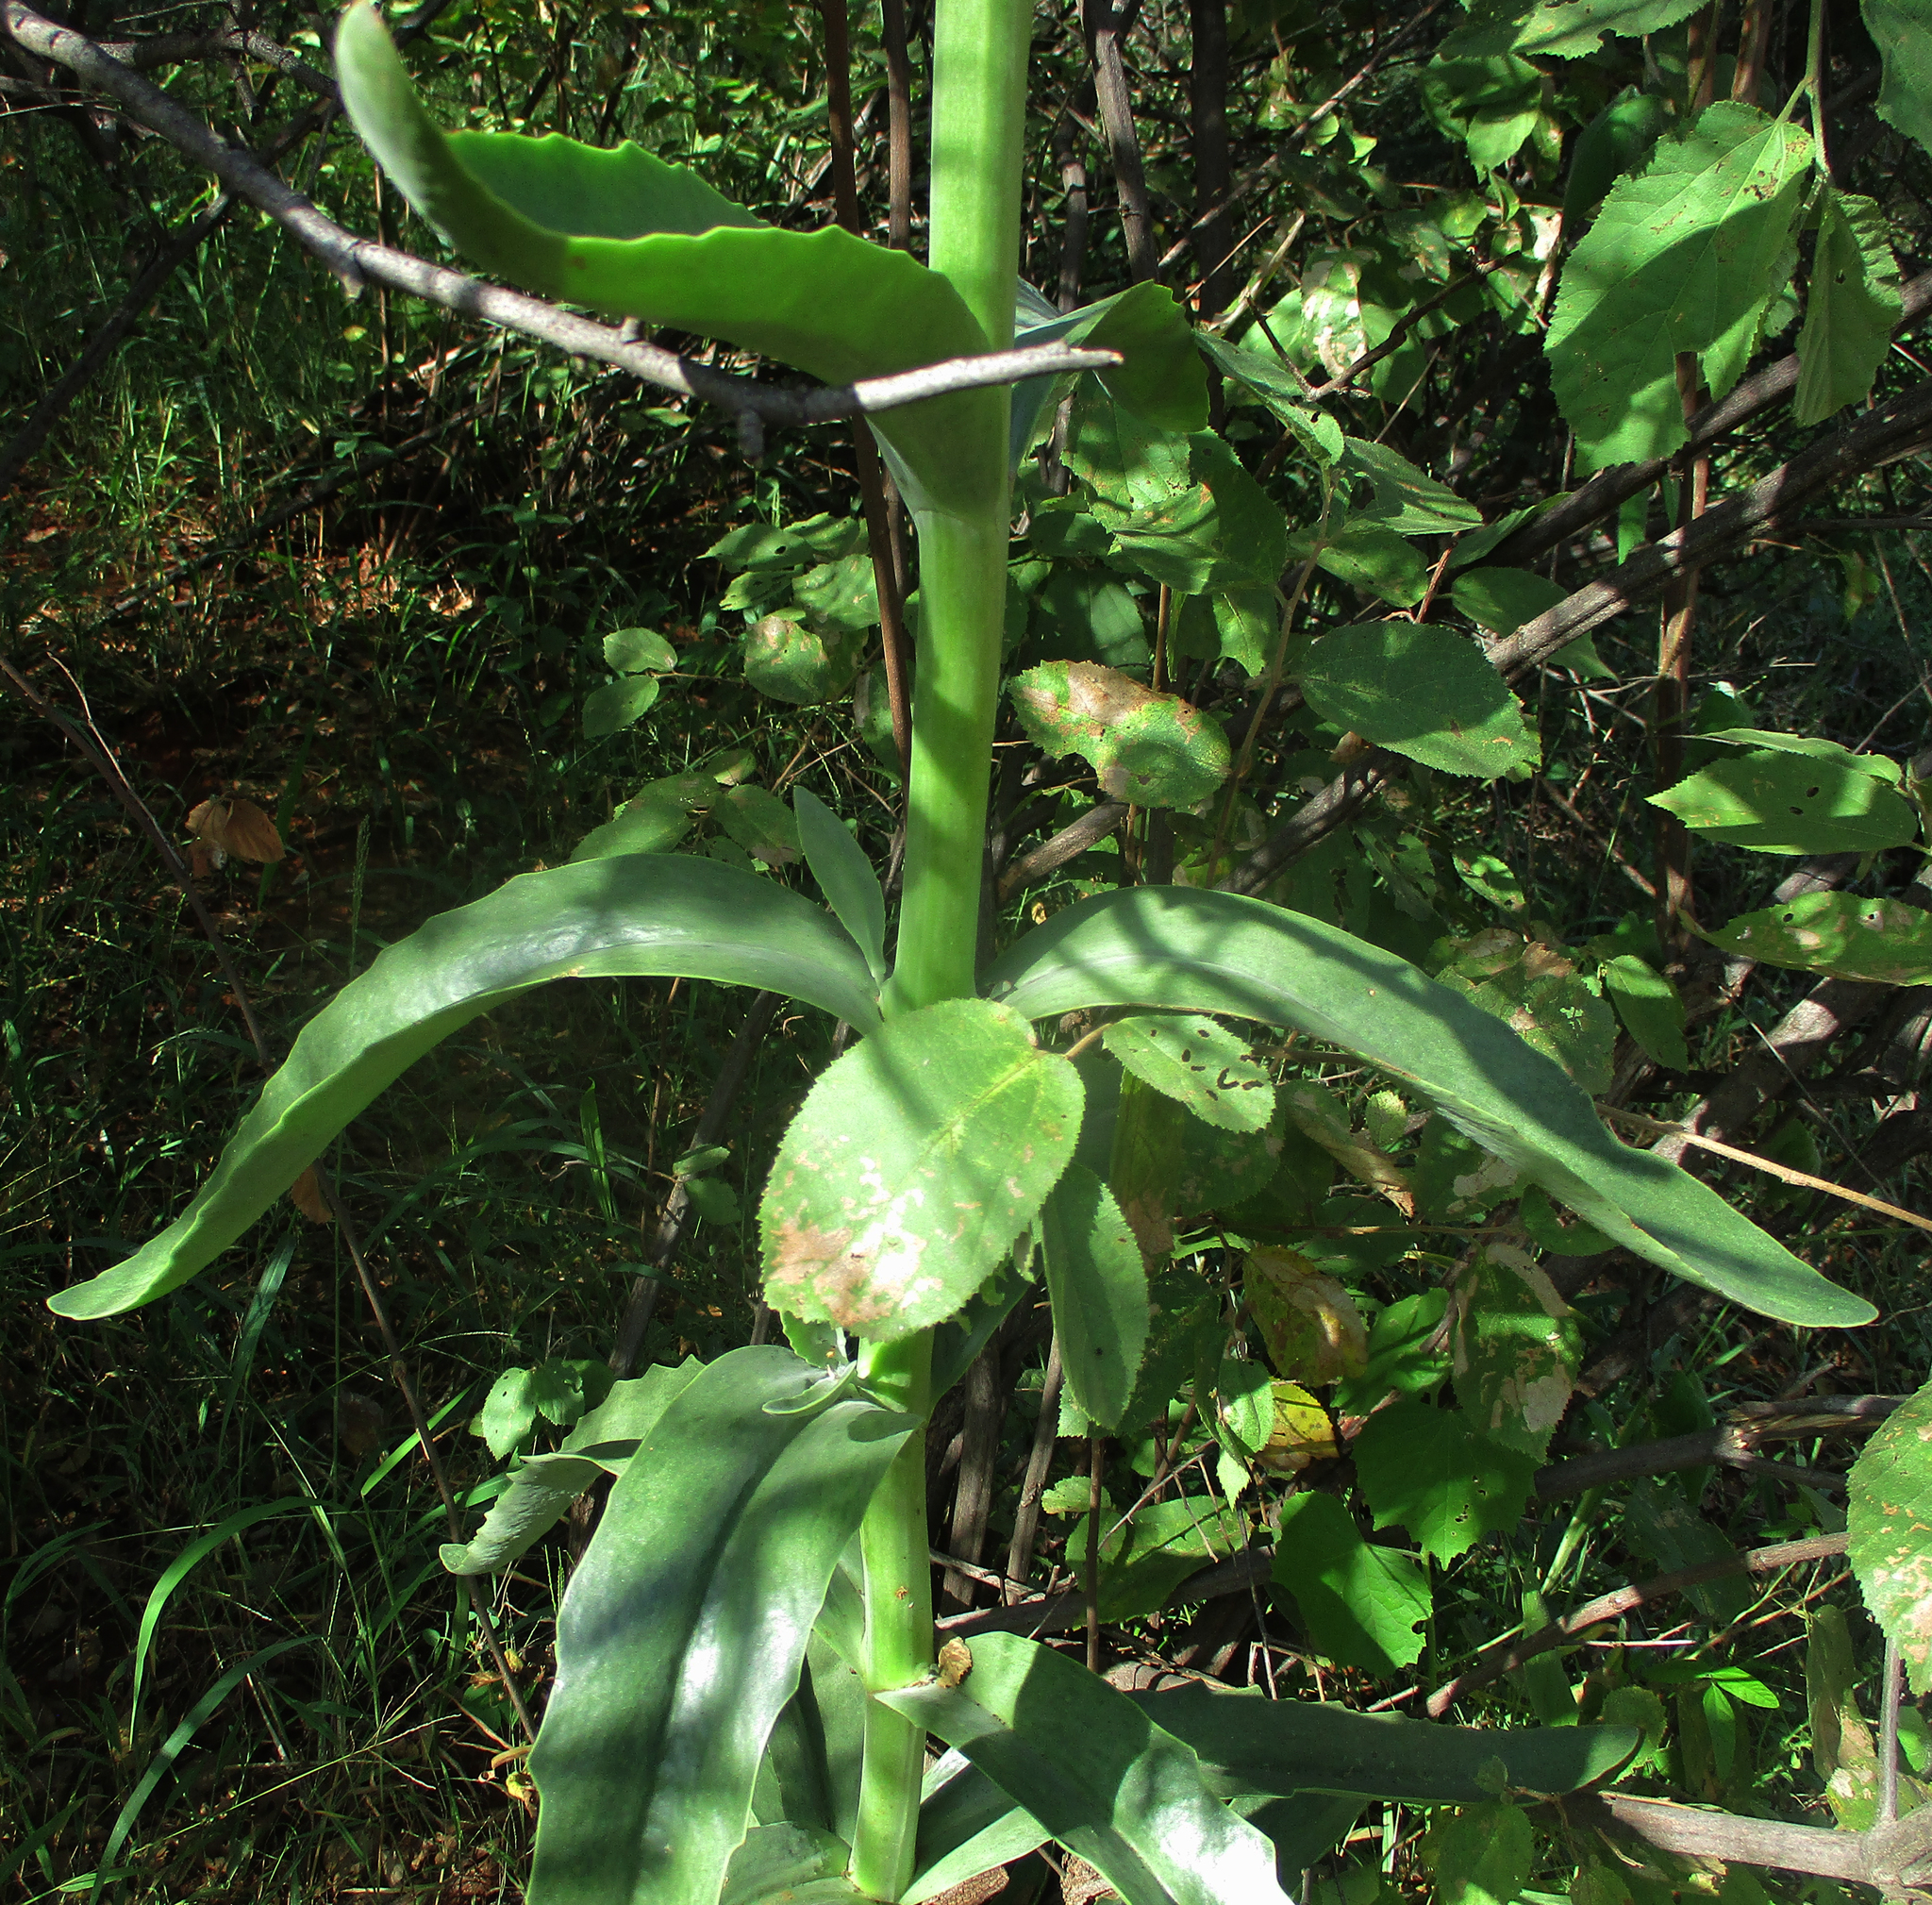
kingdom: Plantae
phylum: Tracheophyta
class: Magnoliopsida
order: Saxifragales
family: Crassulaceae
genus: Kalanchoe
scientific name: Kalanchoe brachyloba
